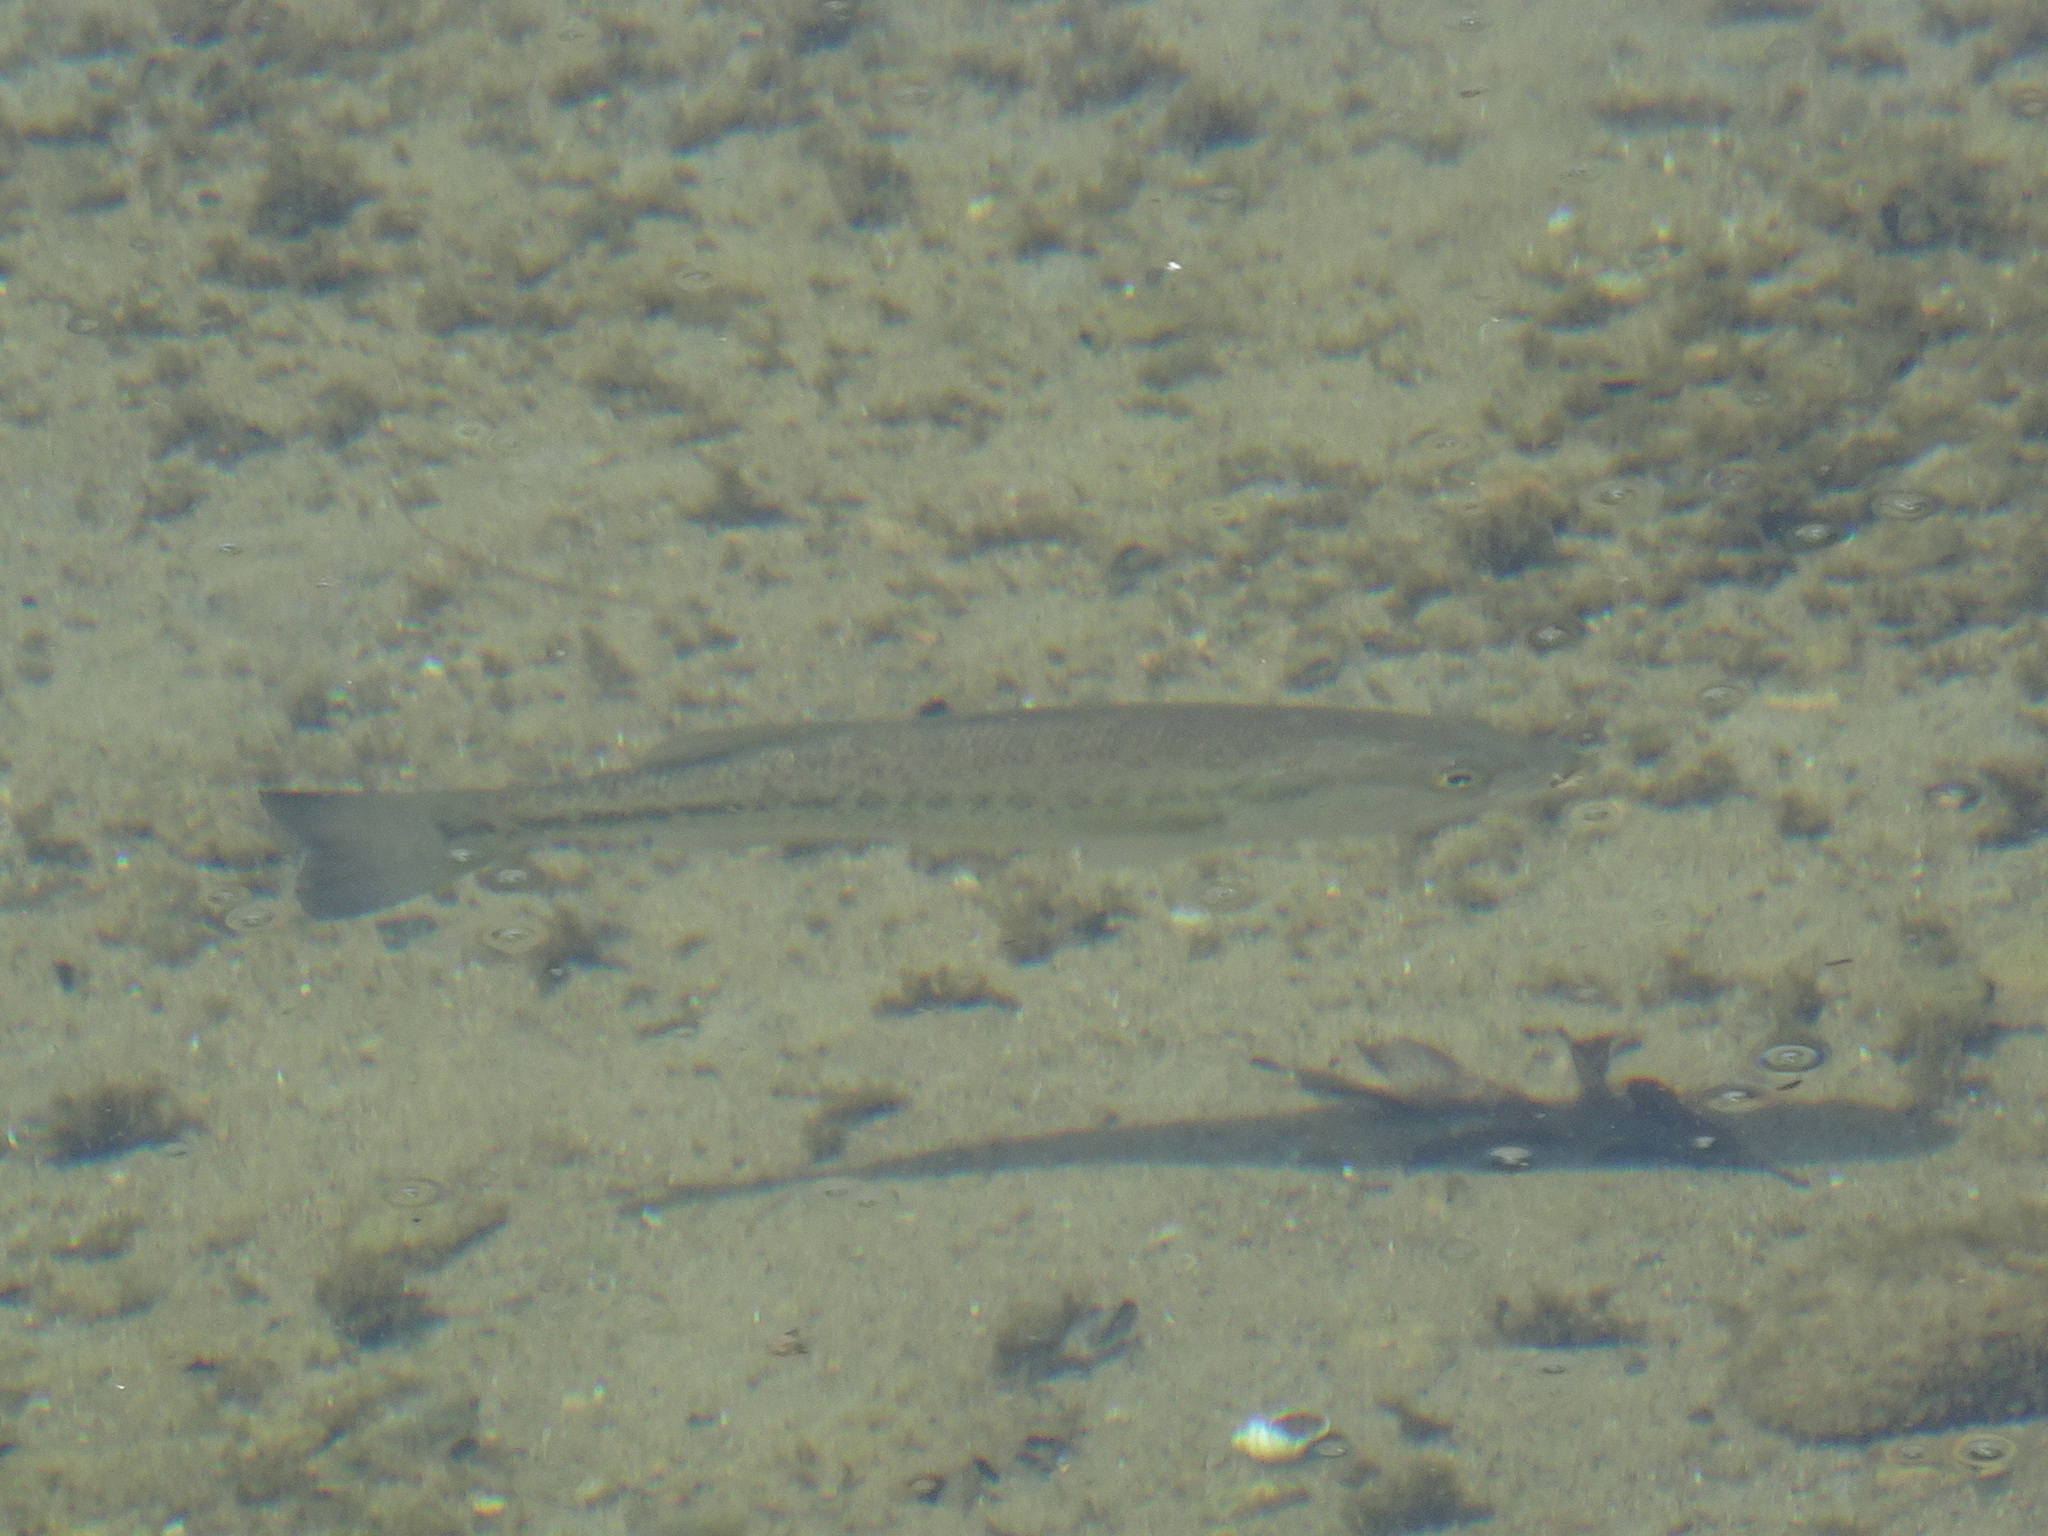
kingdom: Animalia
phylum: Chordata
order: Perciformes
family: Centrarchidae
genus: Micropterus
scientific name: Micropterus
